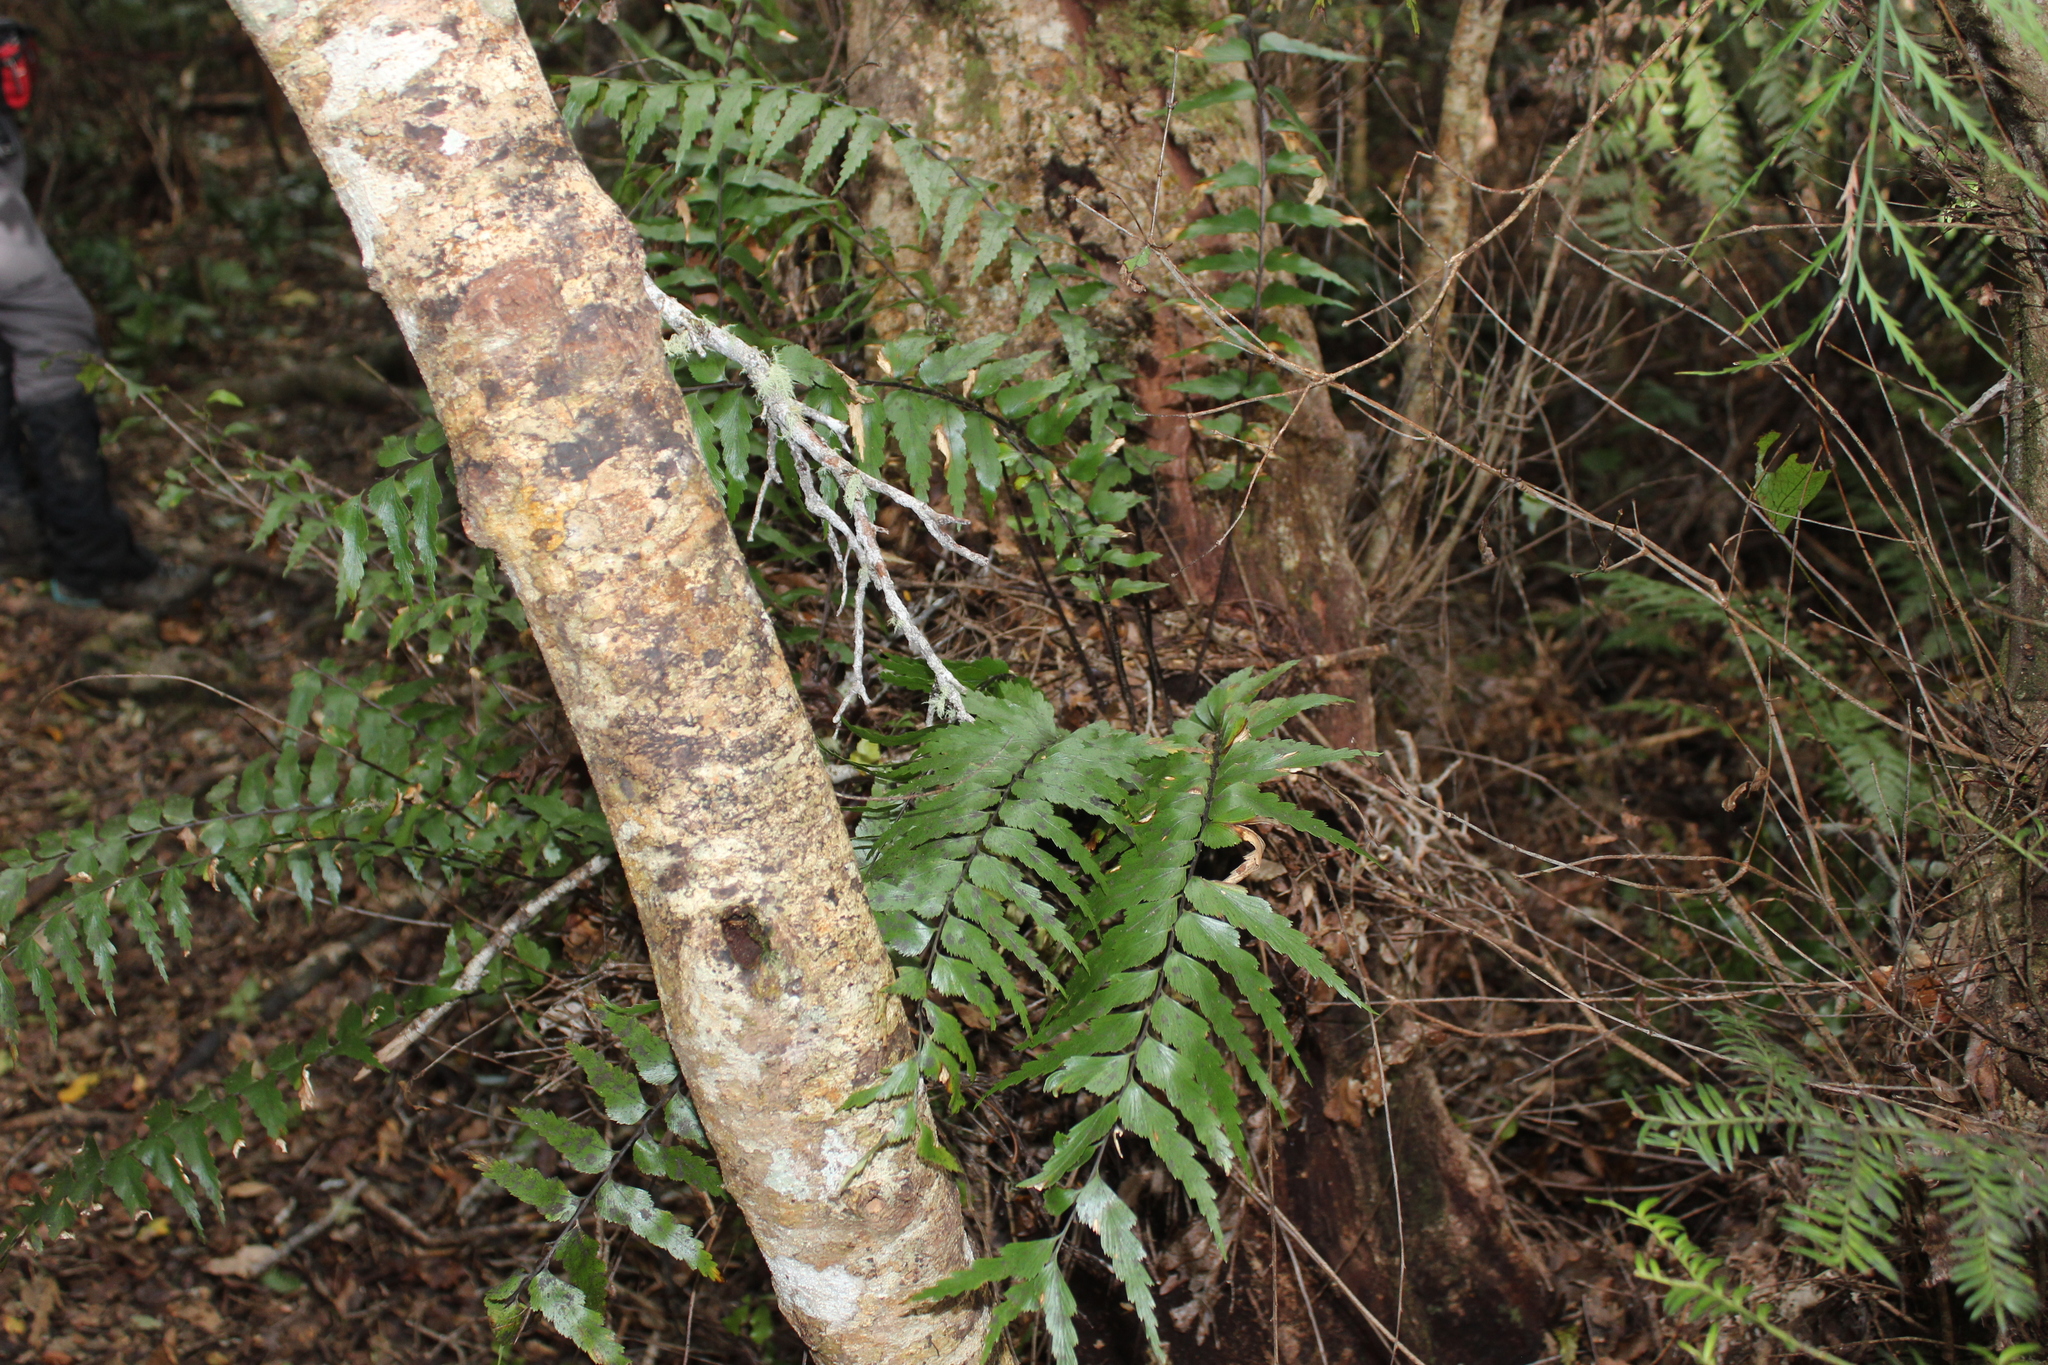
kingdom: Plantae
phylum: Tracheophyta
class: Polypodiopsida
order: Polypodiales
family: Aspleniaceae
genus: Asplenium
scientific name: Asplenium polyodon
